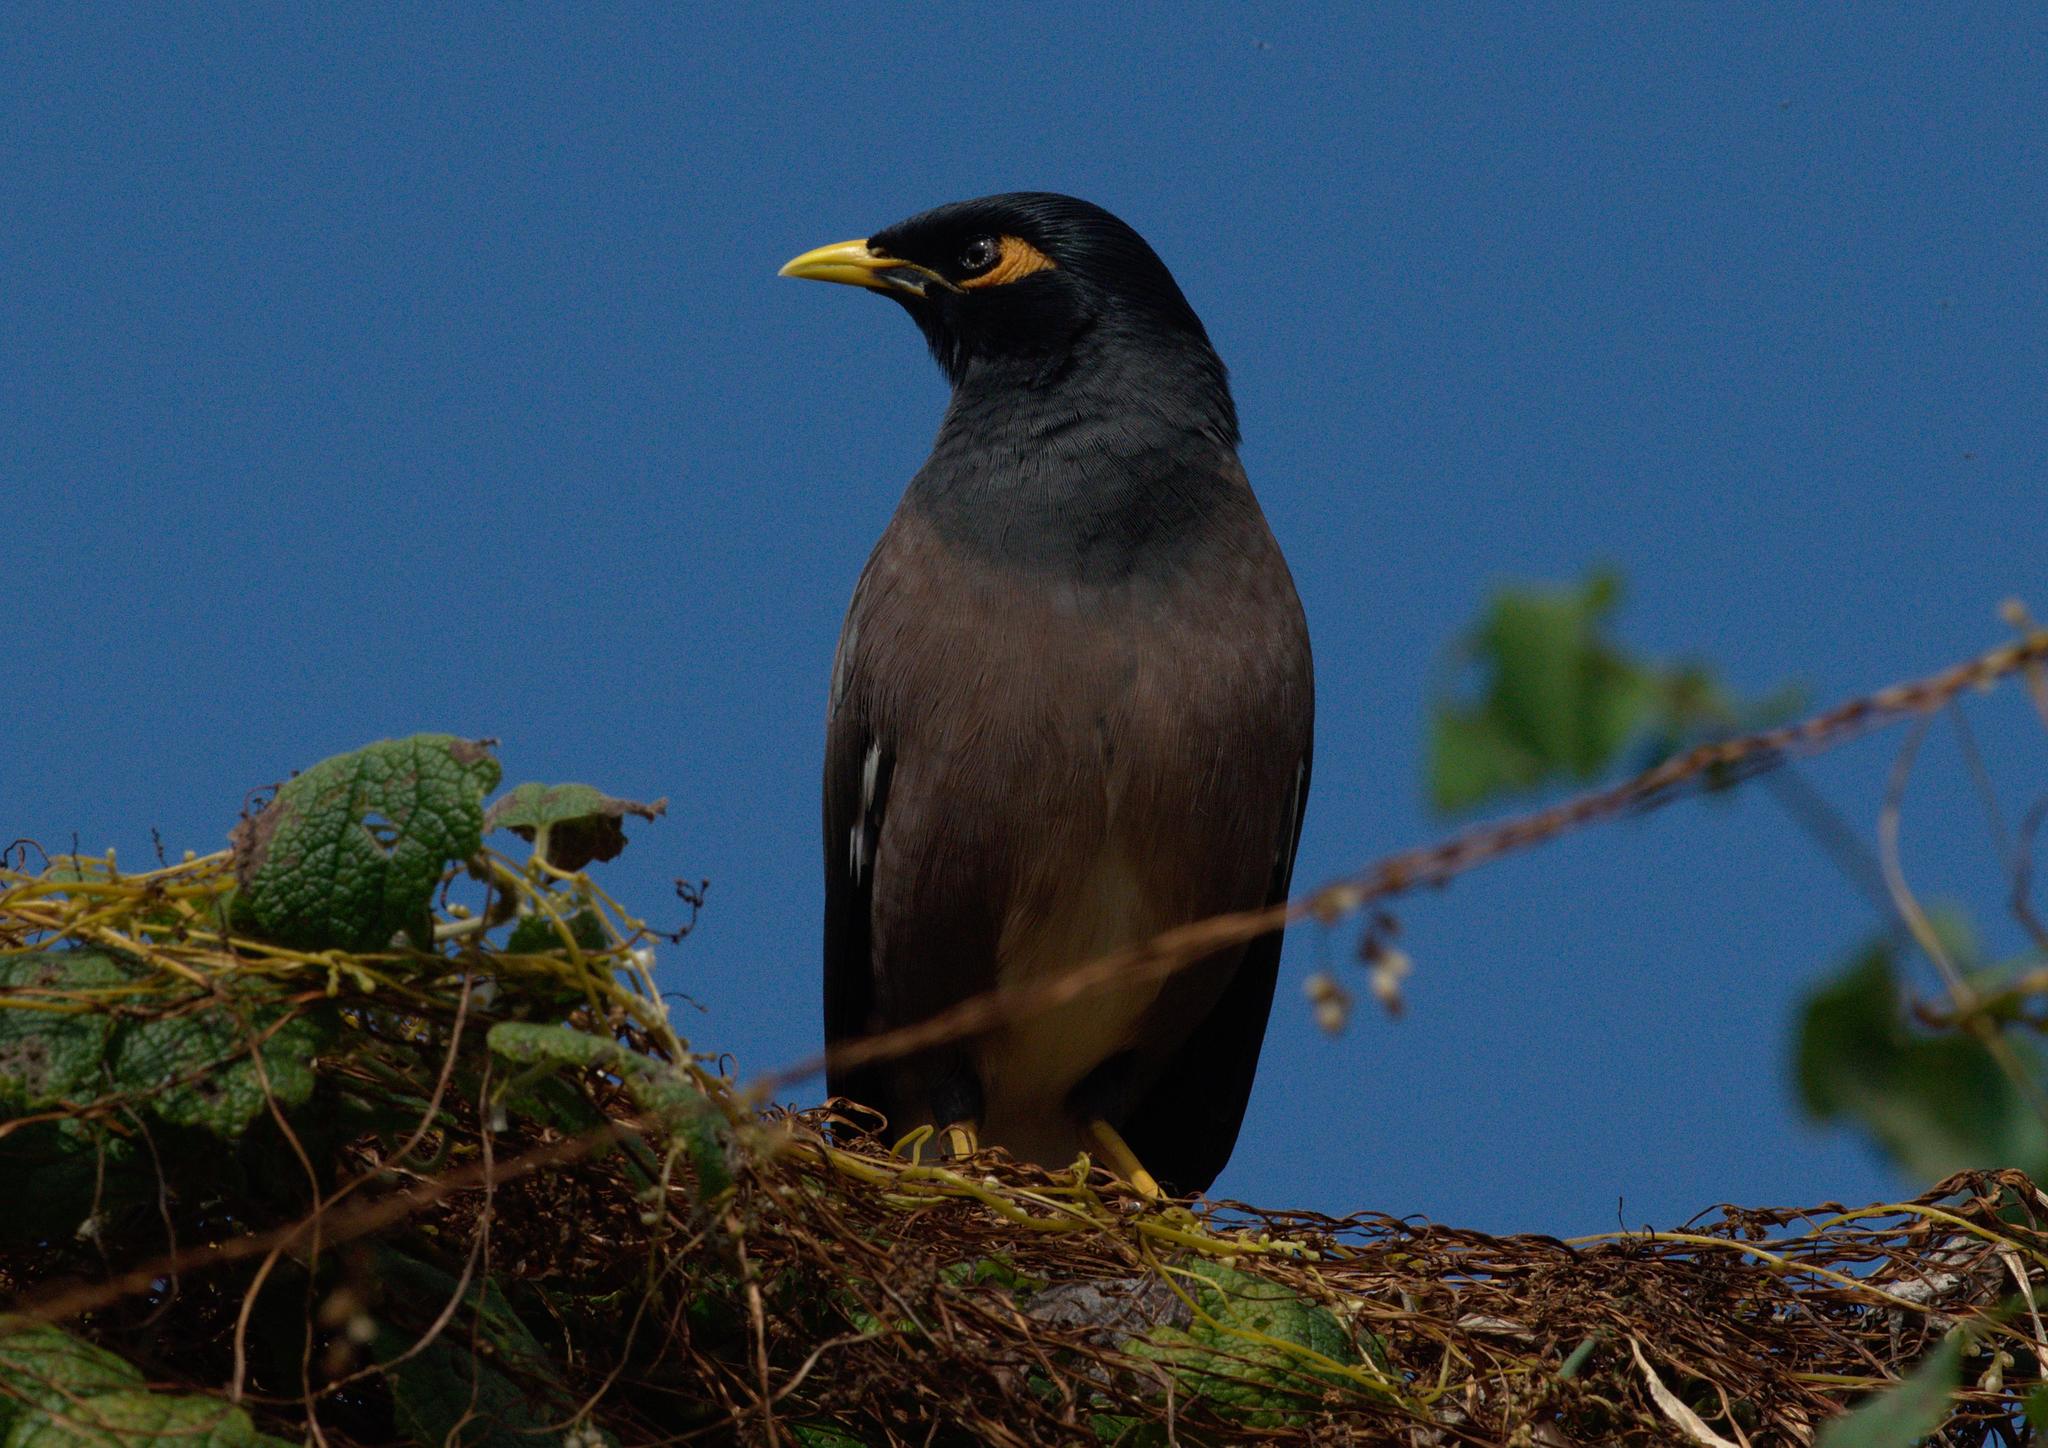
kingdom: Animalia
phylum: Chordata
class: Aves
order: Passeriformes
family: Sturnidae
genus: Acridotheres
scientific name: Acridotheres tristis
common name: Common myna
